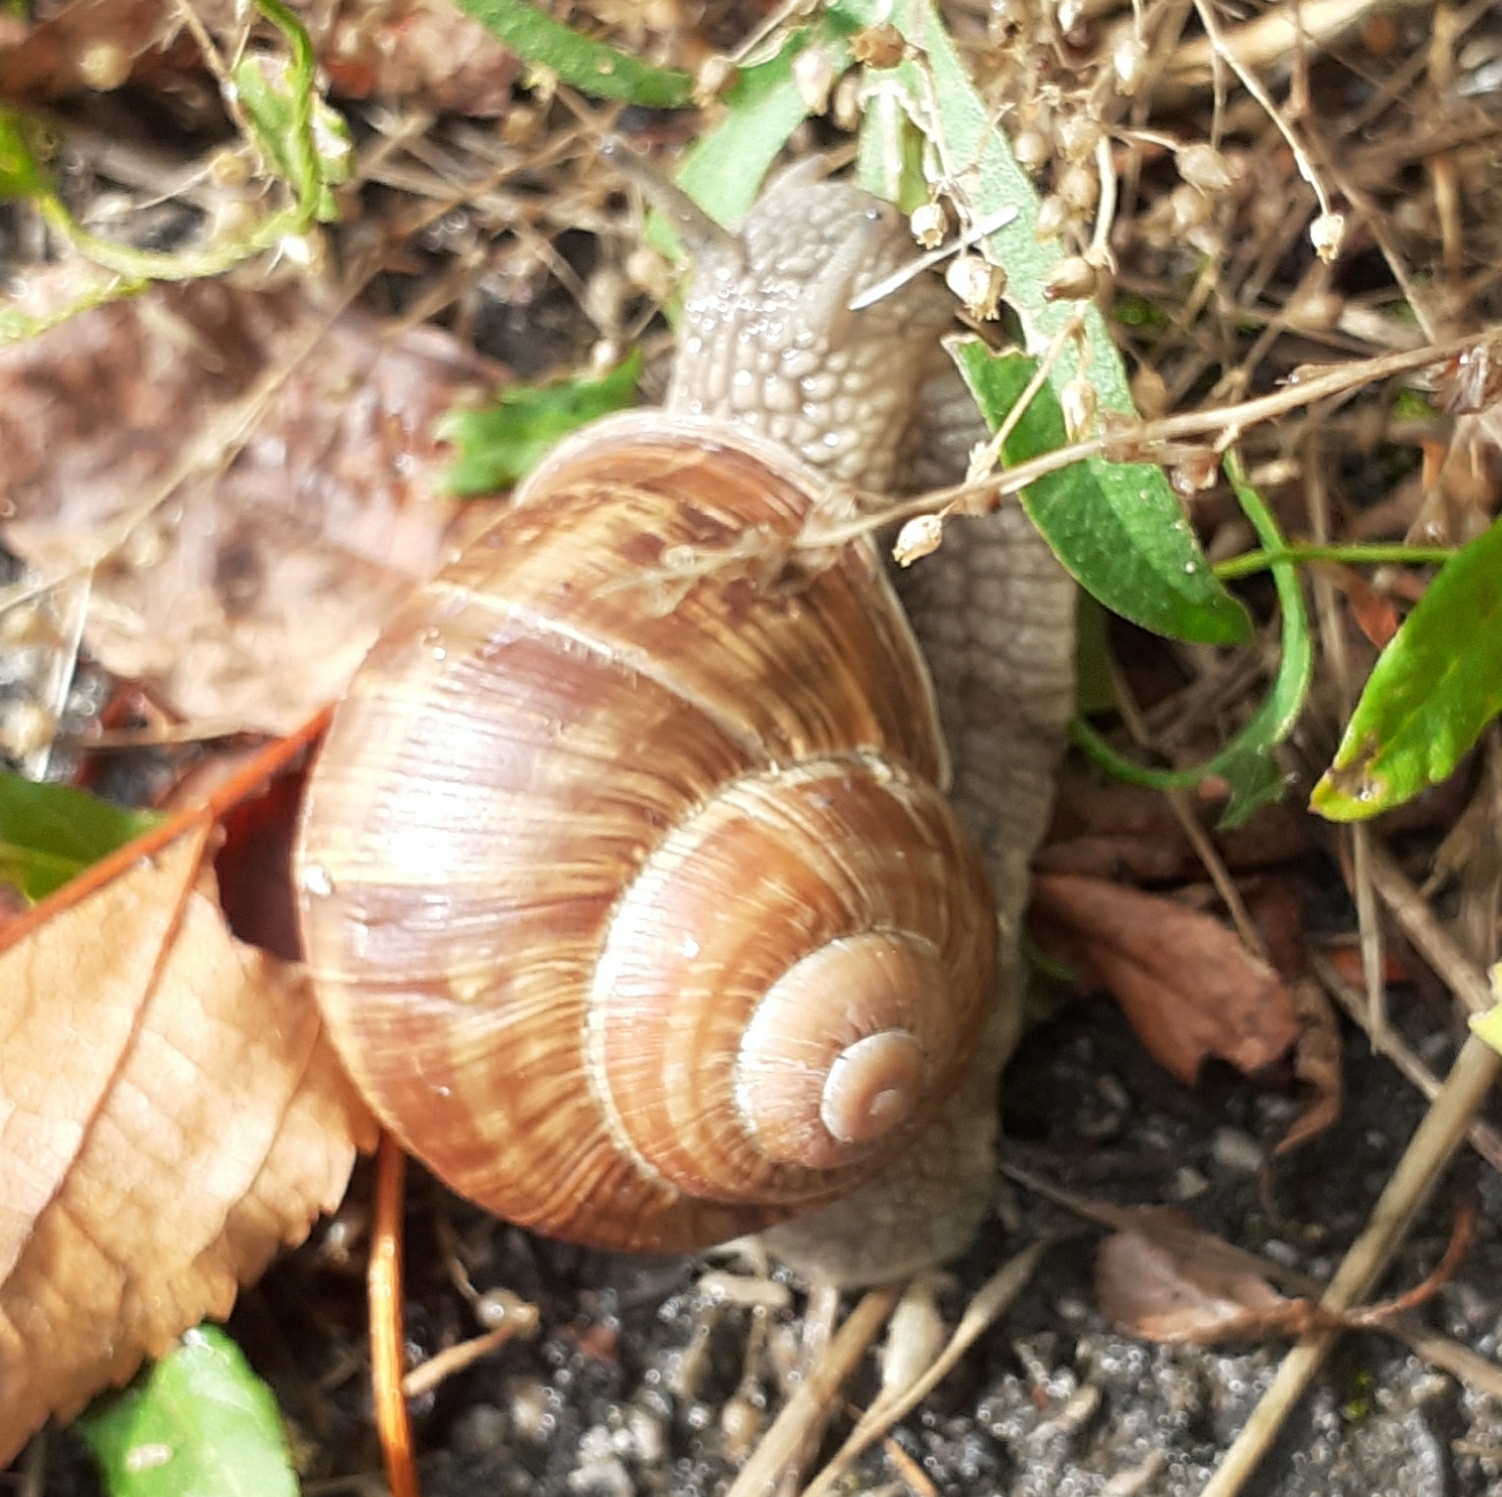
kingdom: Animalia
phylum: Mollusca
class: Gastropoda
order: Stylommatophora
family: Helicidae
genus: Helix
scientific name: Helix pomatia
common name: Roman snail
